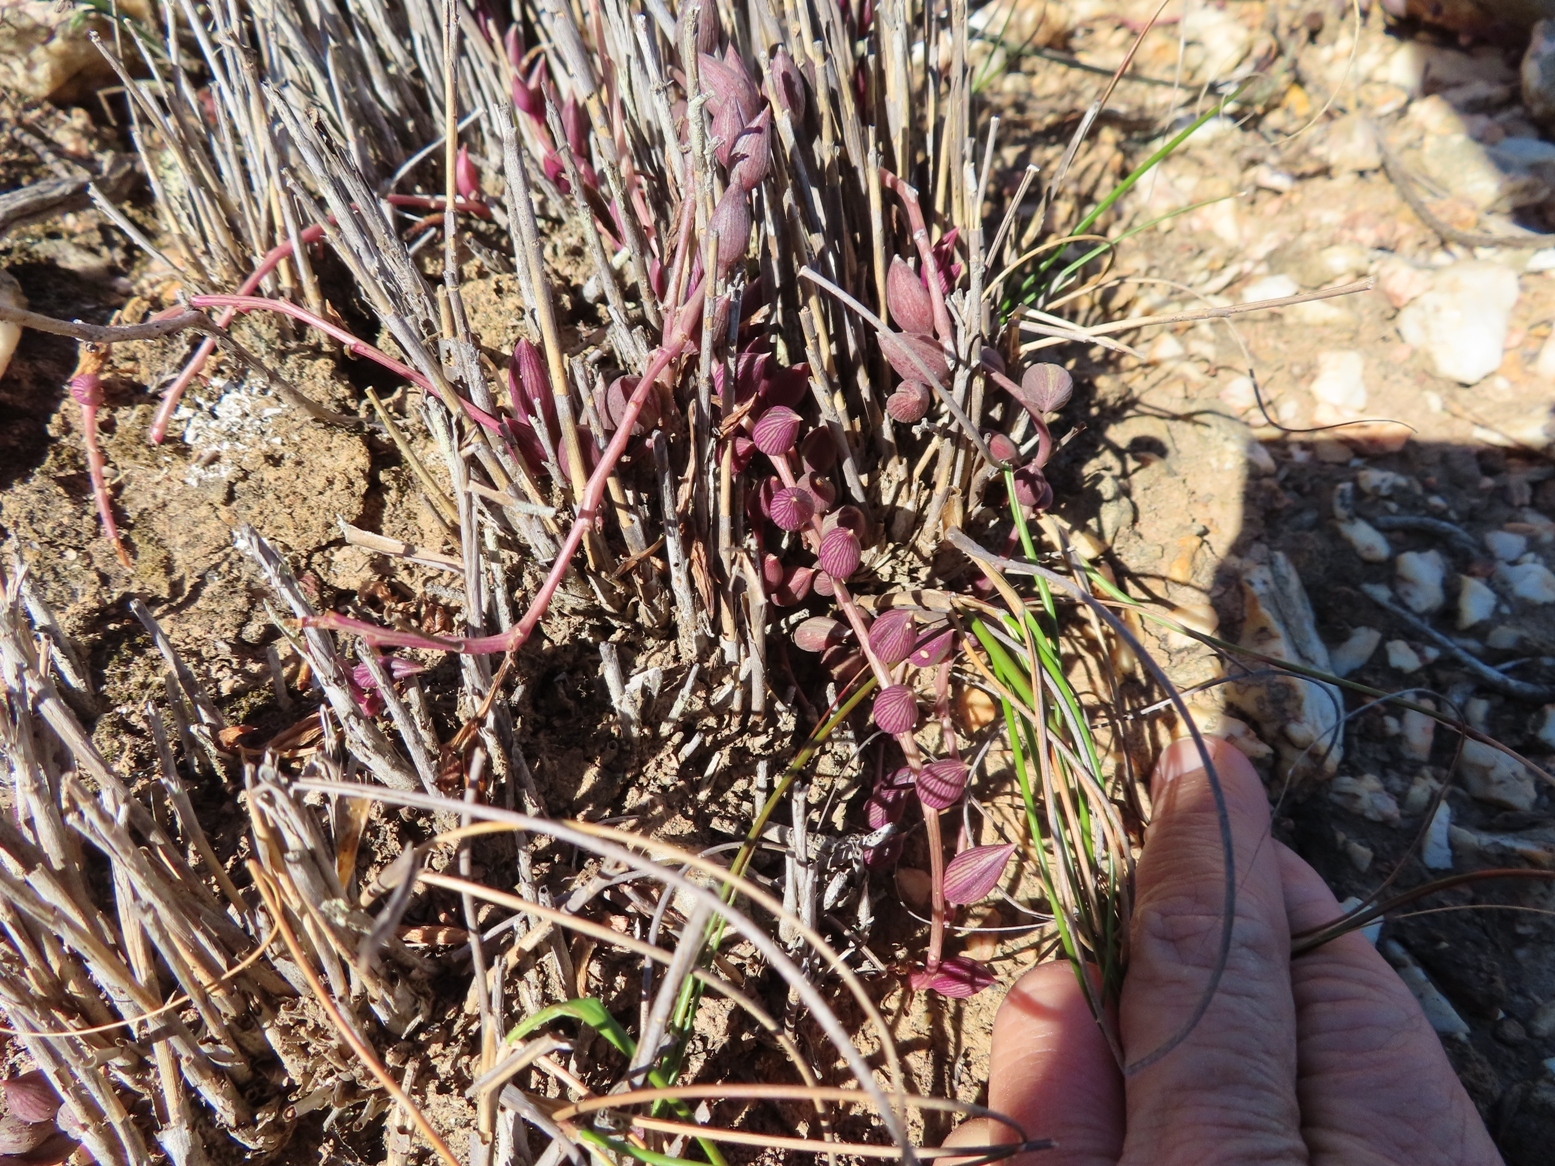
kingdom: Plantae
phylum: Tracheophyta
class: Magnoliopsida
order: Asterales
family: Asteraceae
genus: Curio
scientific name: Curio radicans
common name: Creeping-berry
